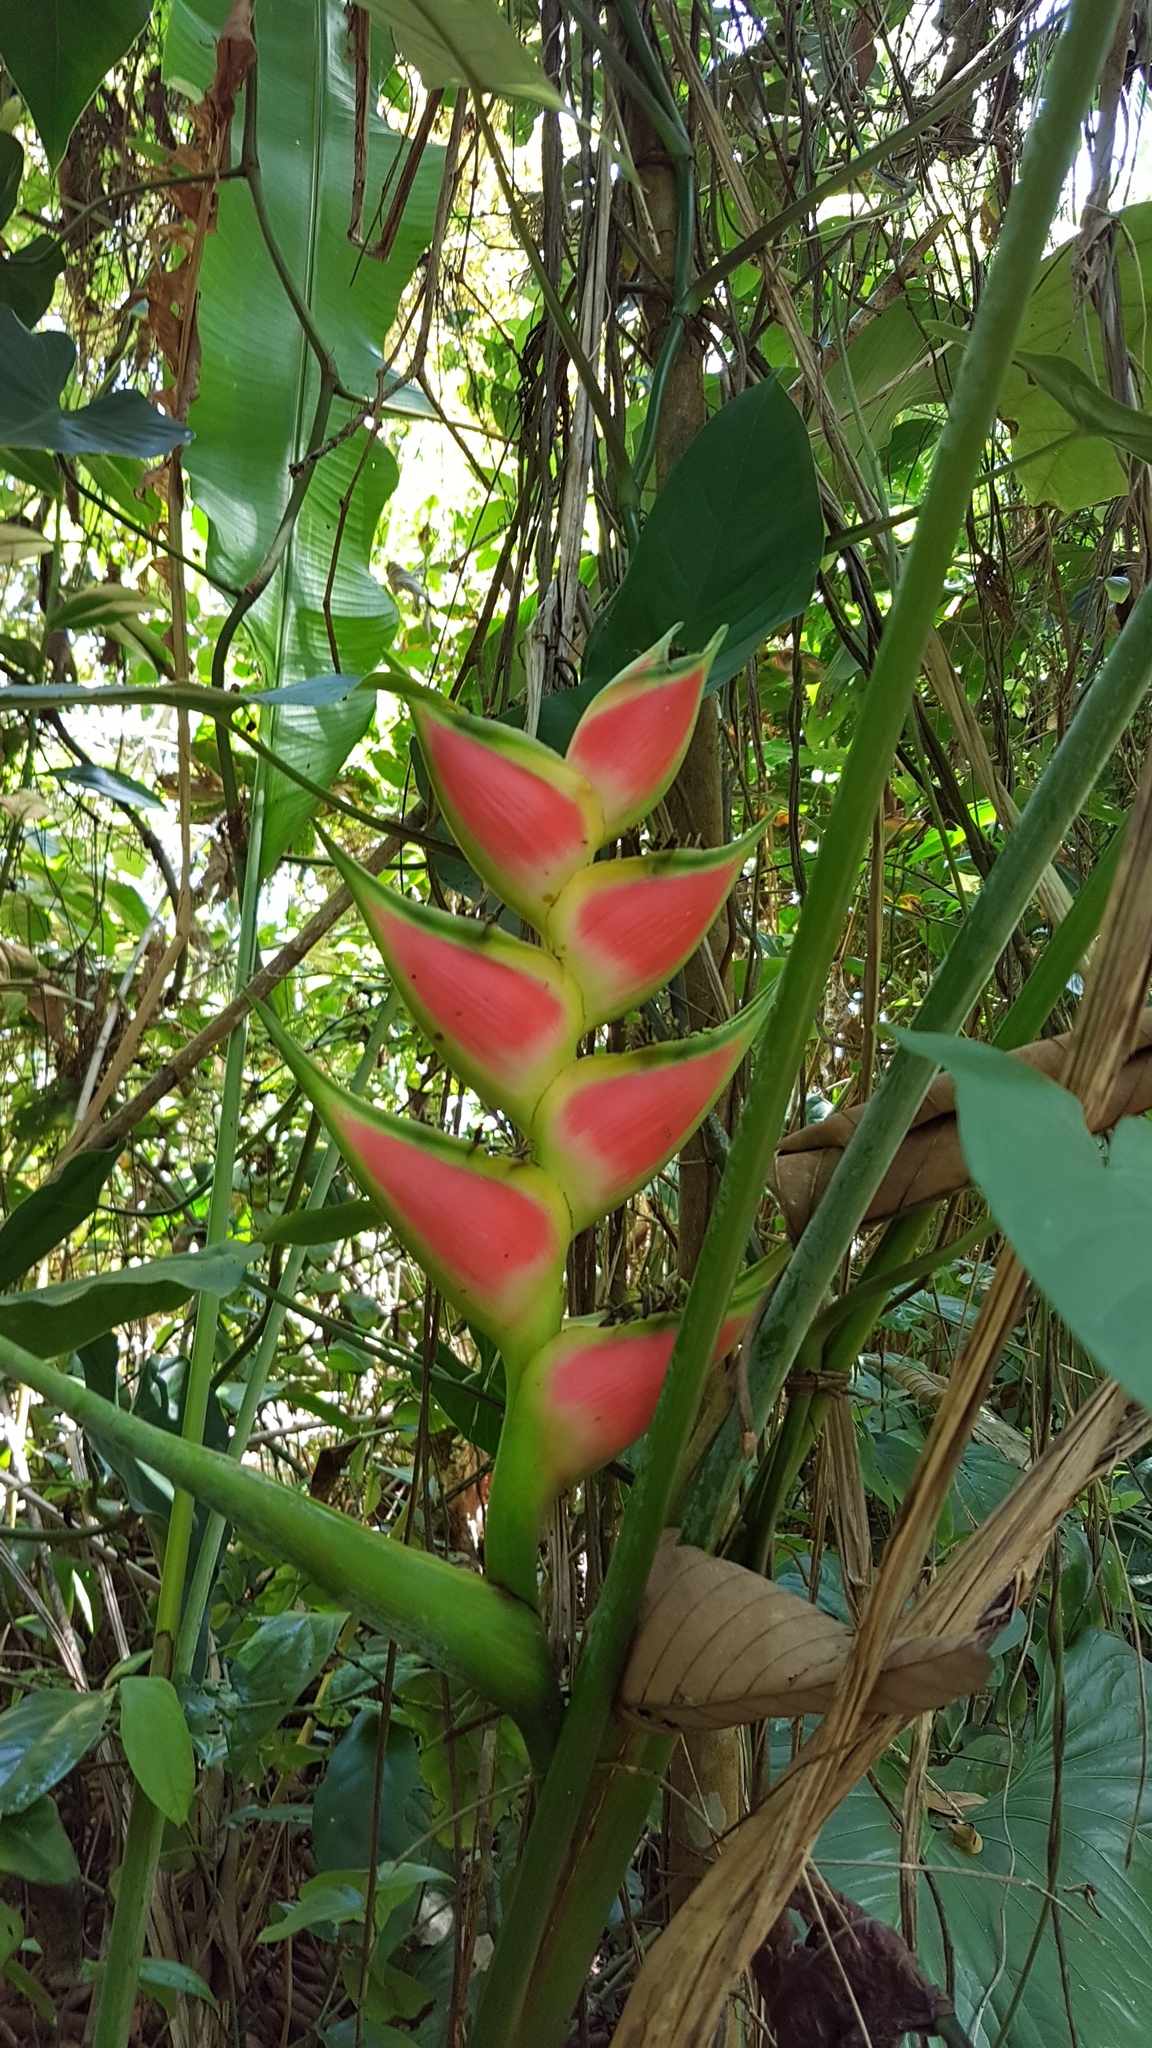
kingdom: Plantae
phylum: Tracheophyta
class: Liliopsida
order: Zingiberales
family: Heliconiaceae
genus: Heliconia
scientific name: Heliconia wagneriana
